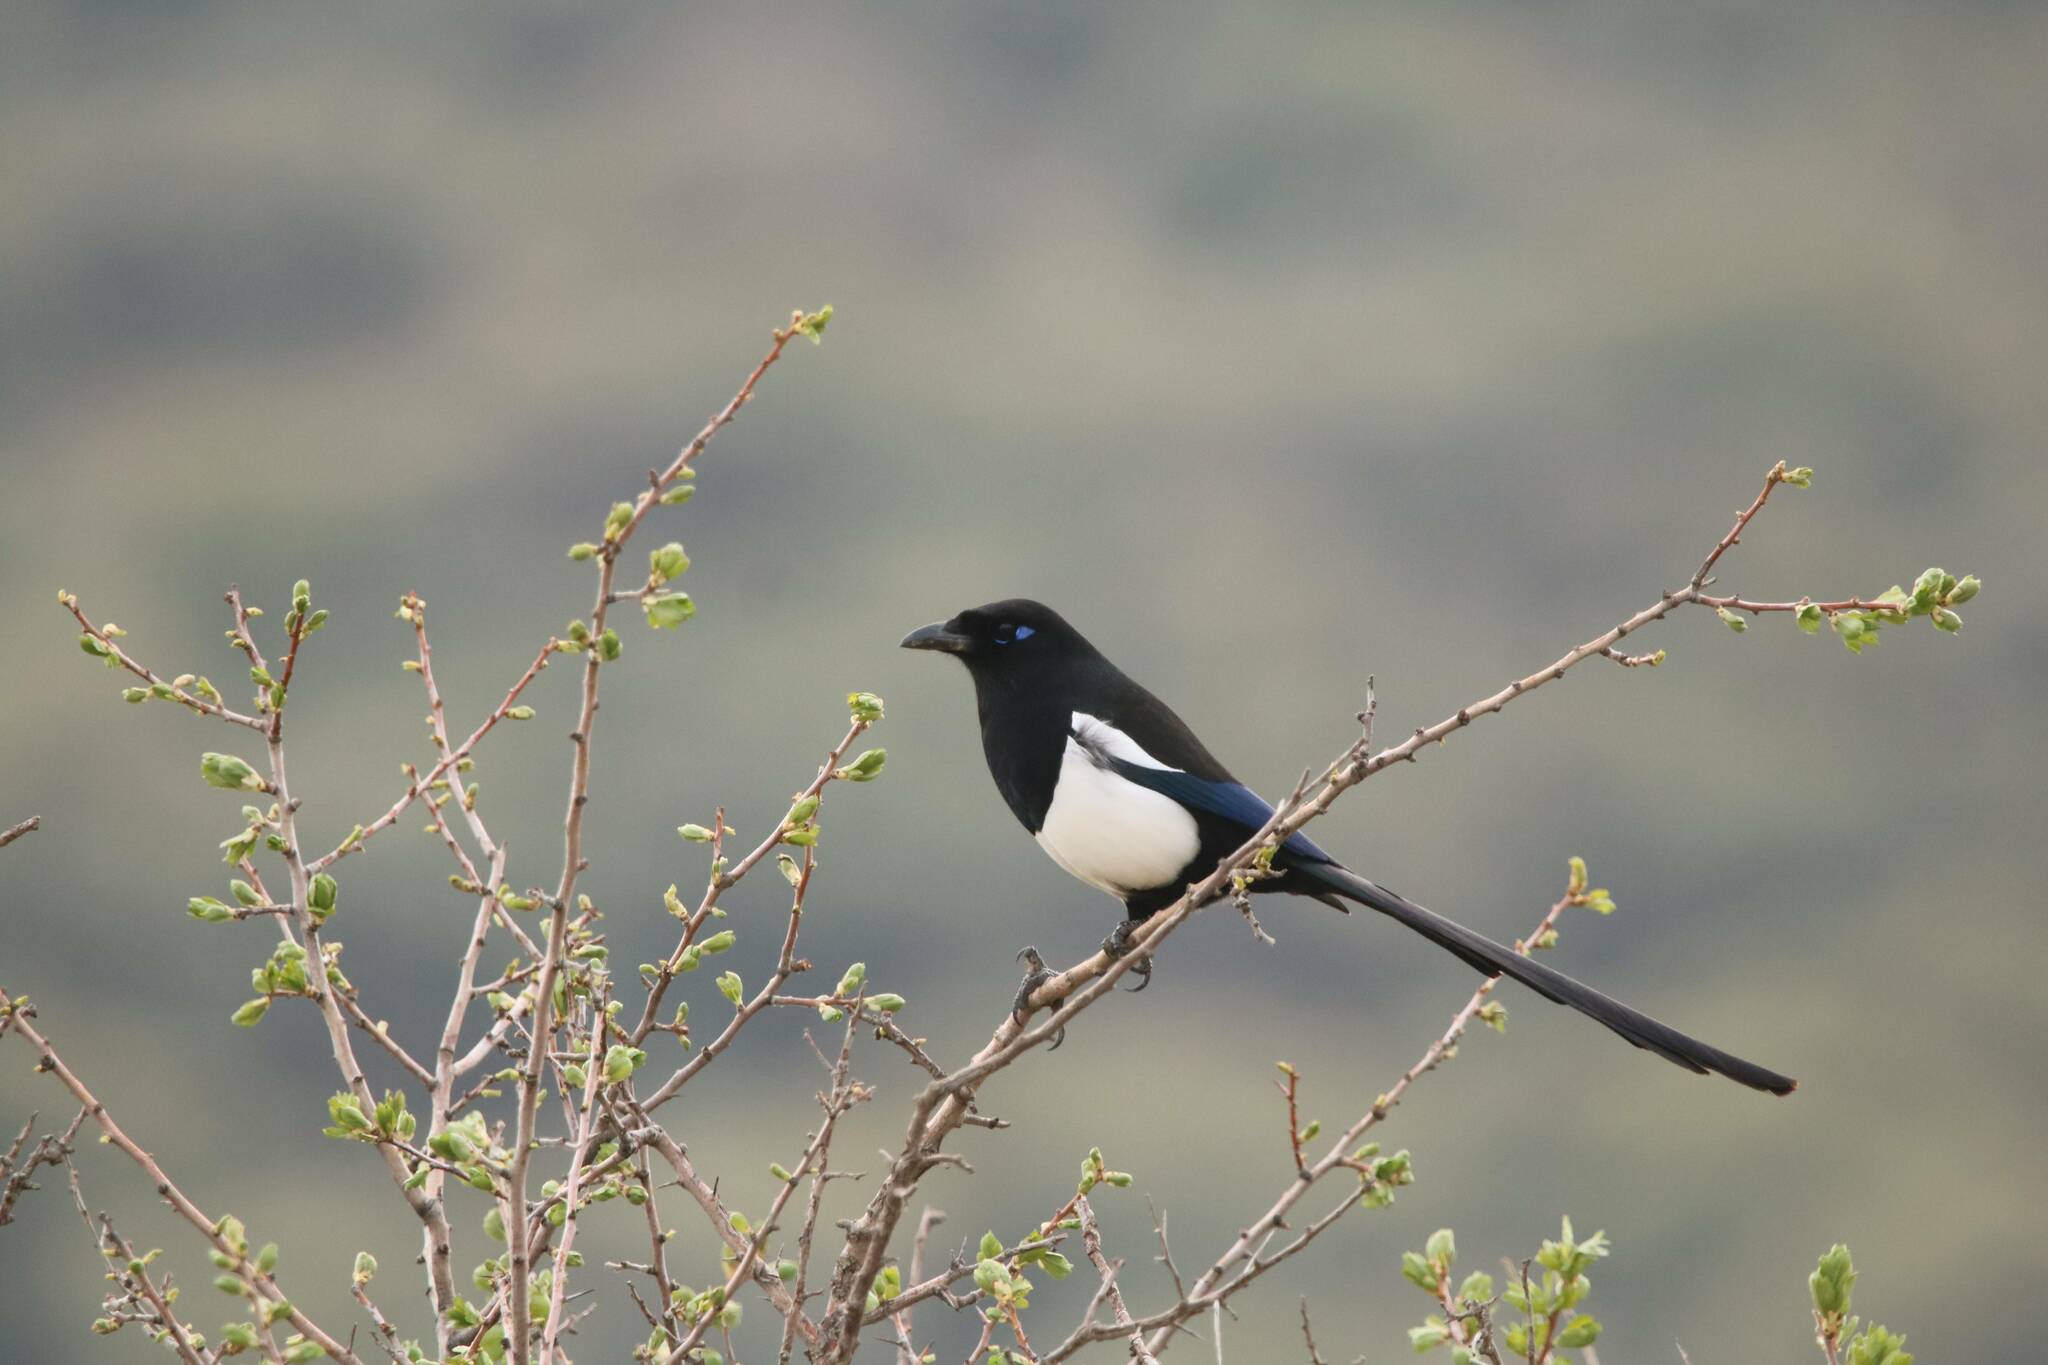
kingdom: Animalia
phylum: Chordata
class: Aves
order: Passeriformes
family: Corvidae
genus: Pica
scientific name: Pica mauritanica
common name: Maghreb magpie
